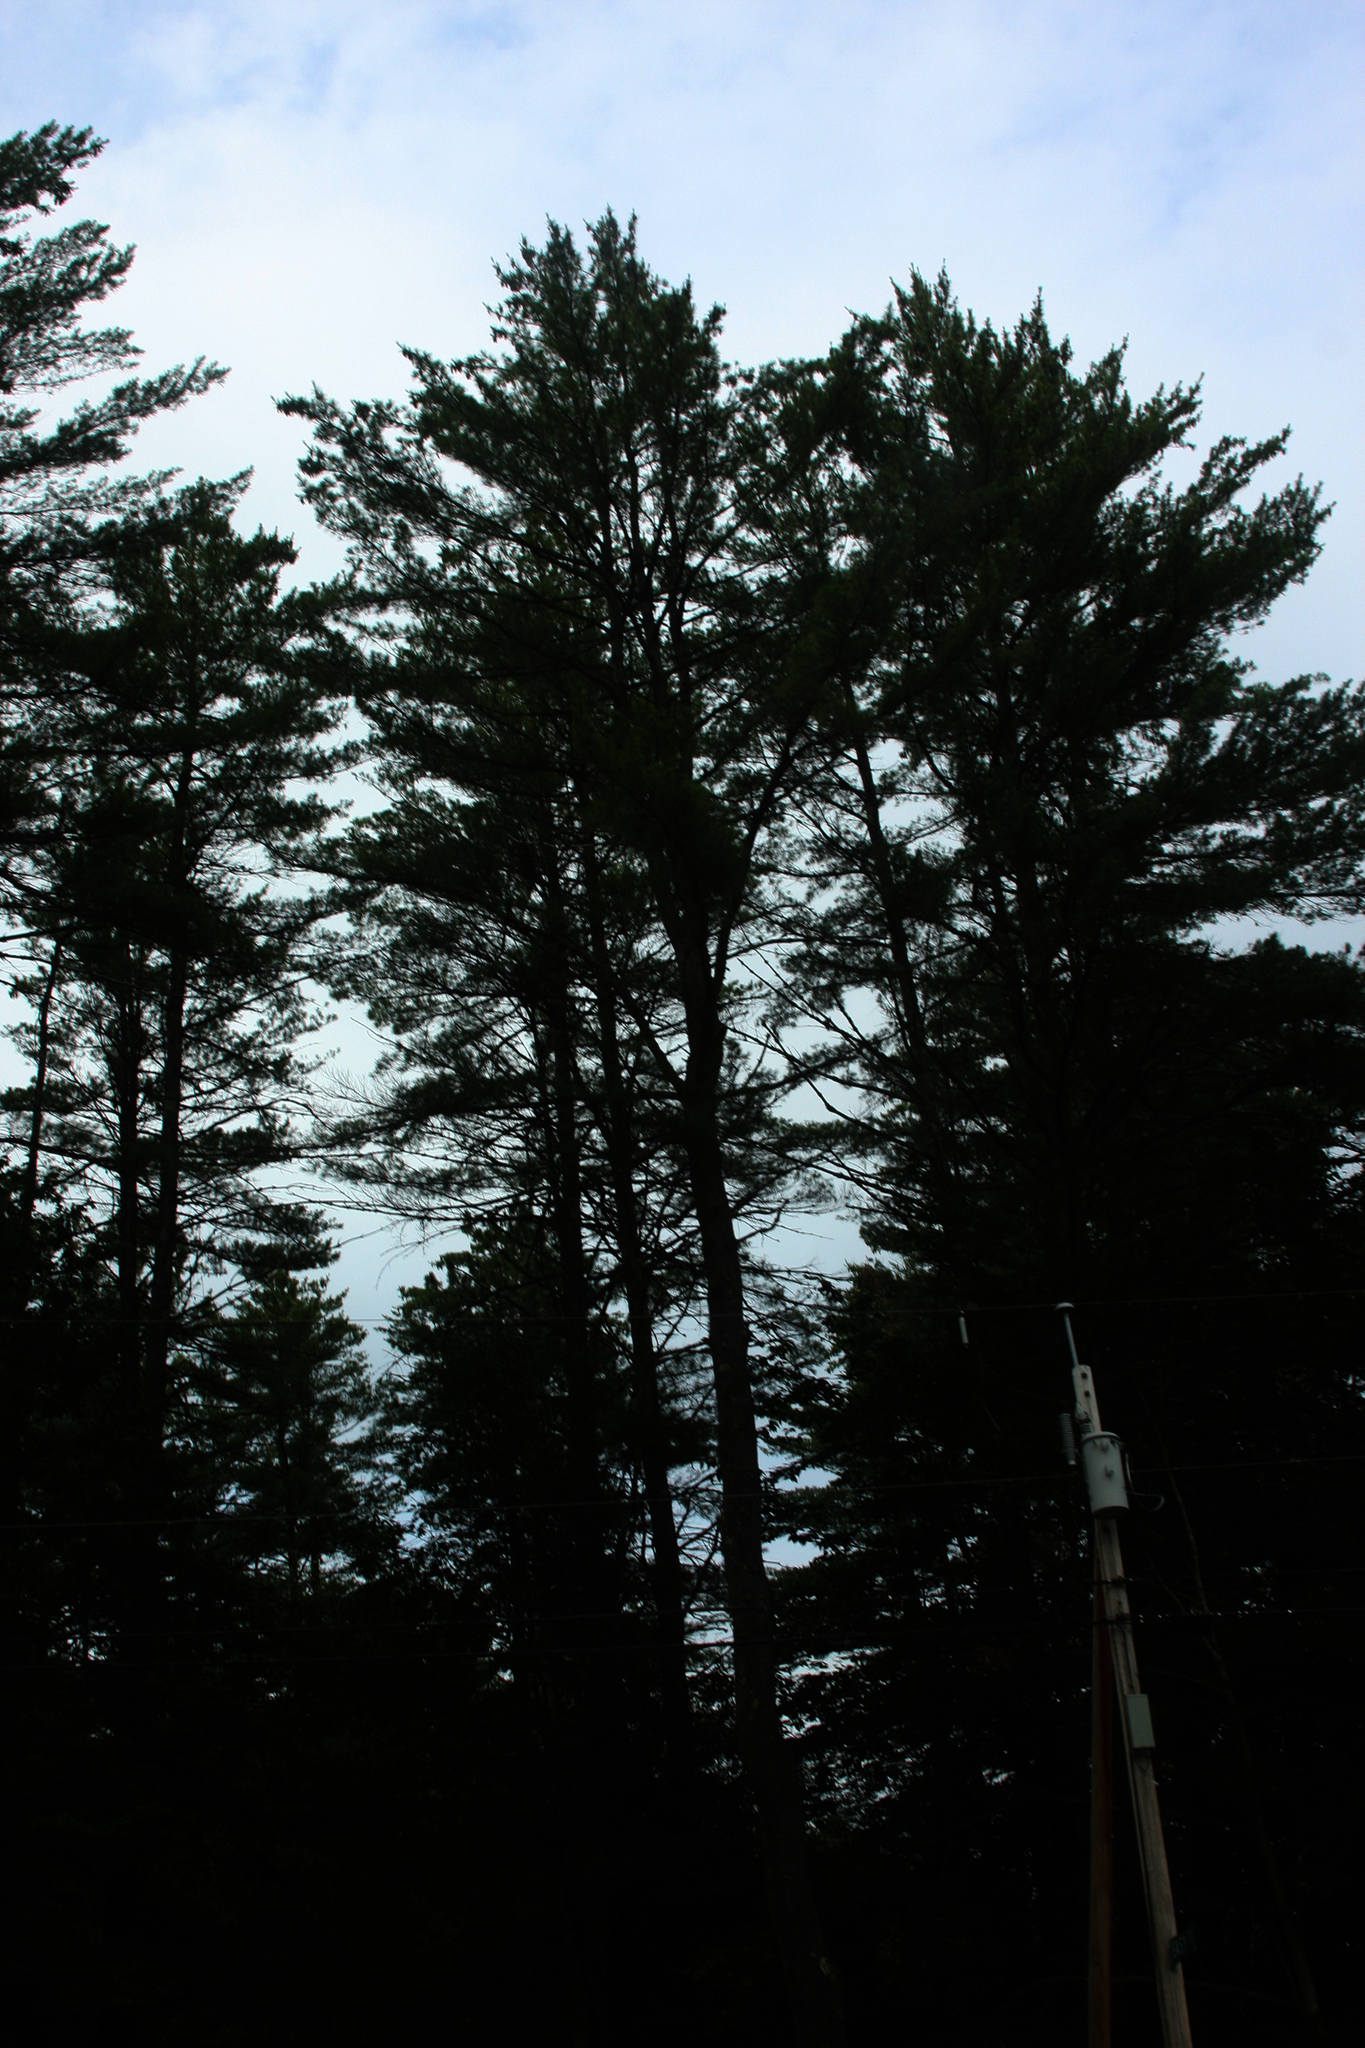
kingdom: Plantae
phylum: Tracheophyta
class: Pinopsida
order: Pinales
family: Pinaceae
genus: Pinus
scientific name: Pinus strobus
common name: Weymouth pine
